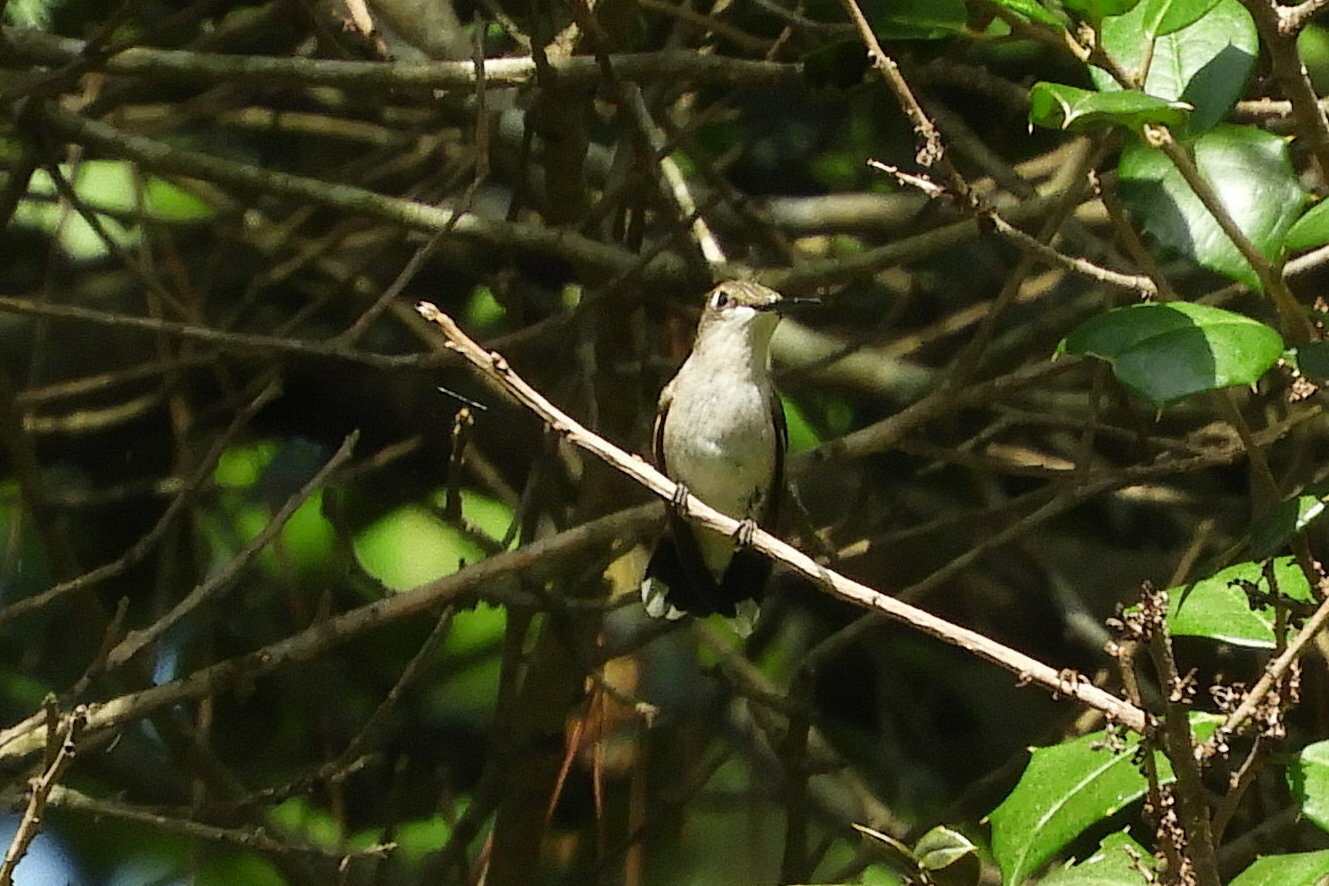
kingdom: Animalia
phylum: Chordata
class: Aves
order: Apodiformes
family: Trochilidae
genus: Archilochus
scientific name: Archilochus colubris
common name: Ruby-throated hummingbird
